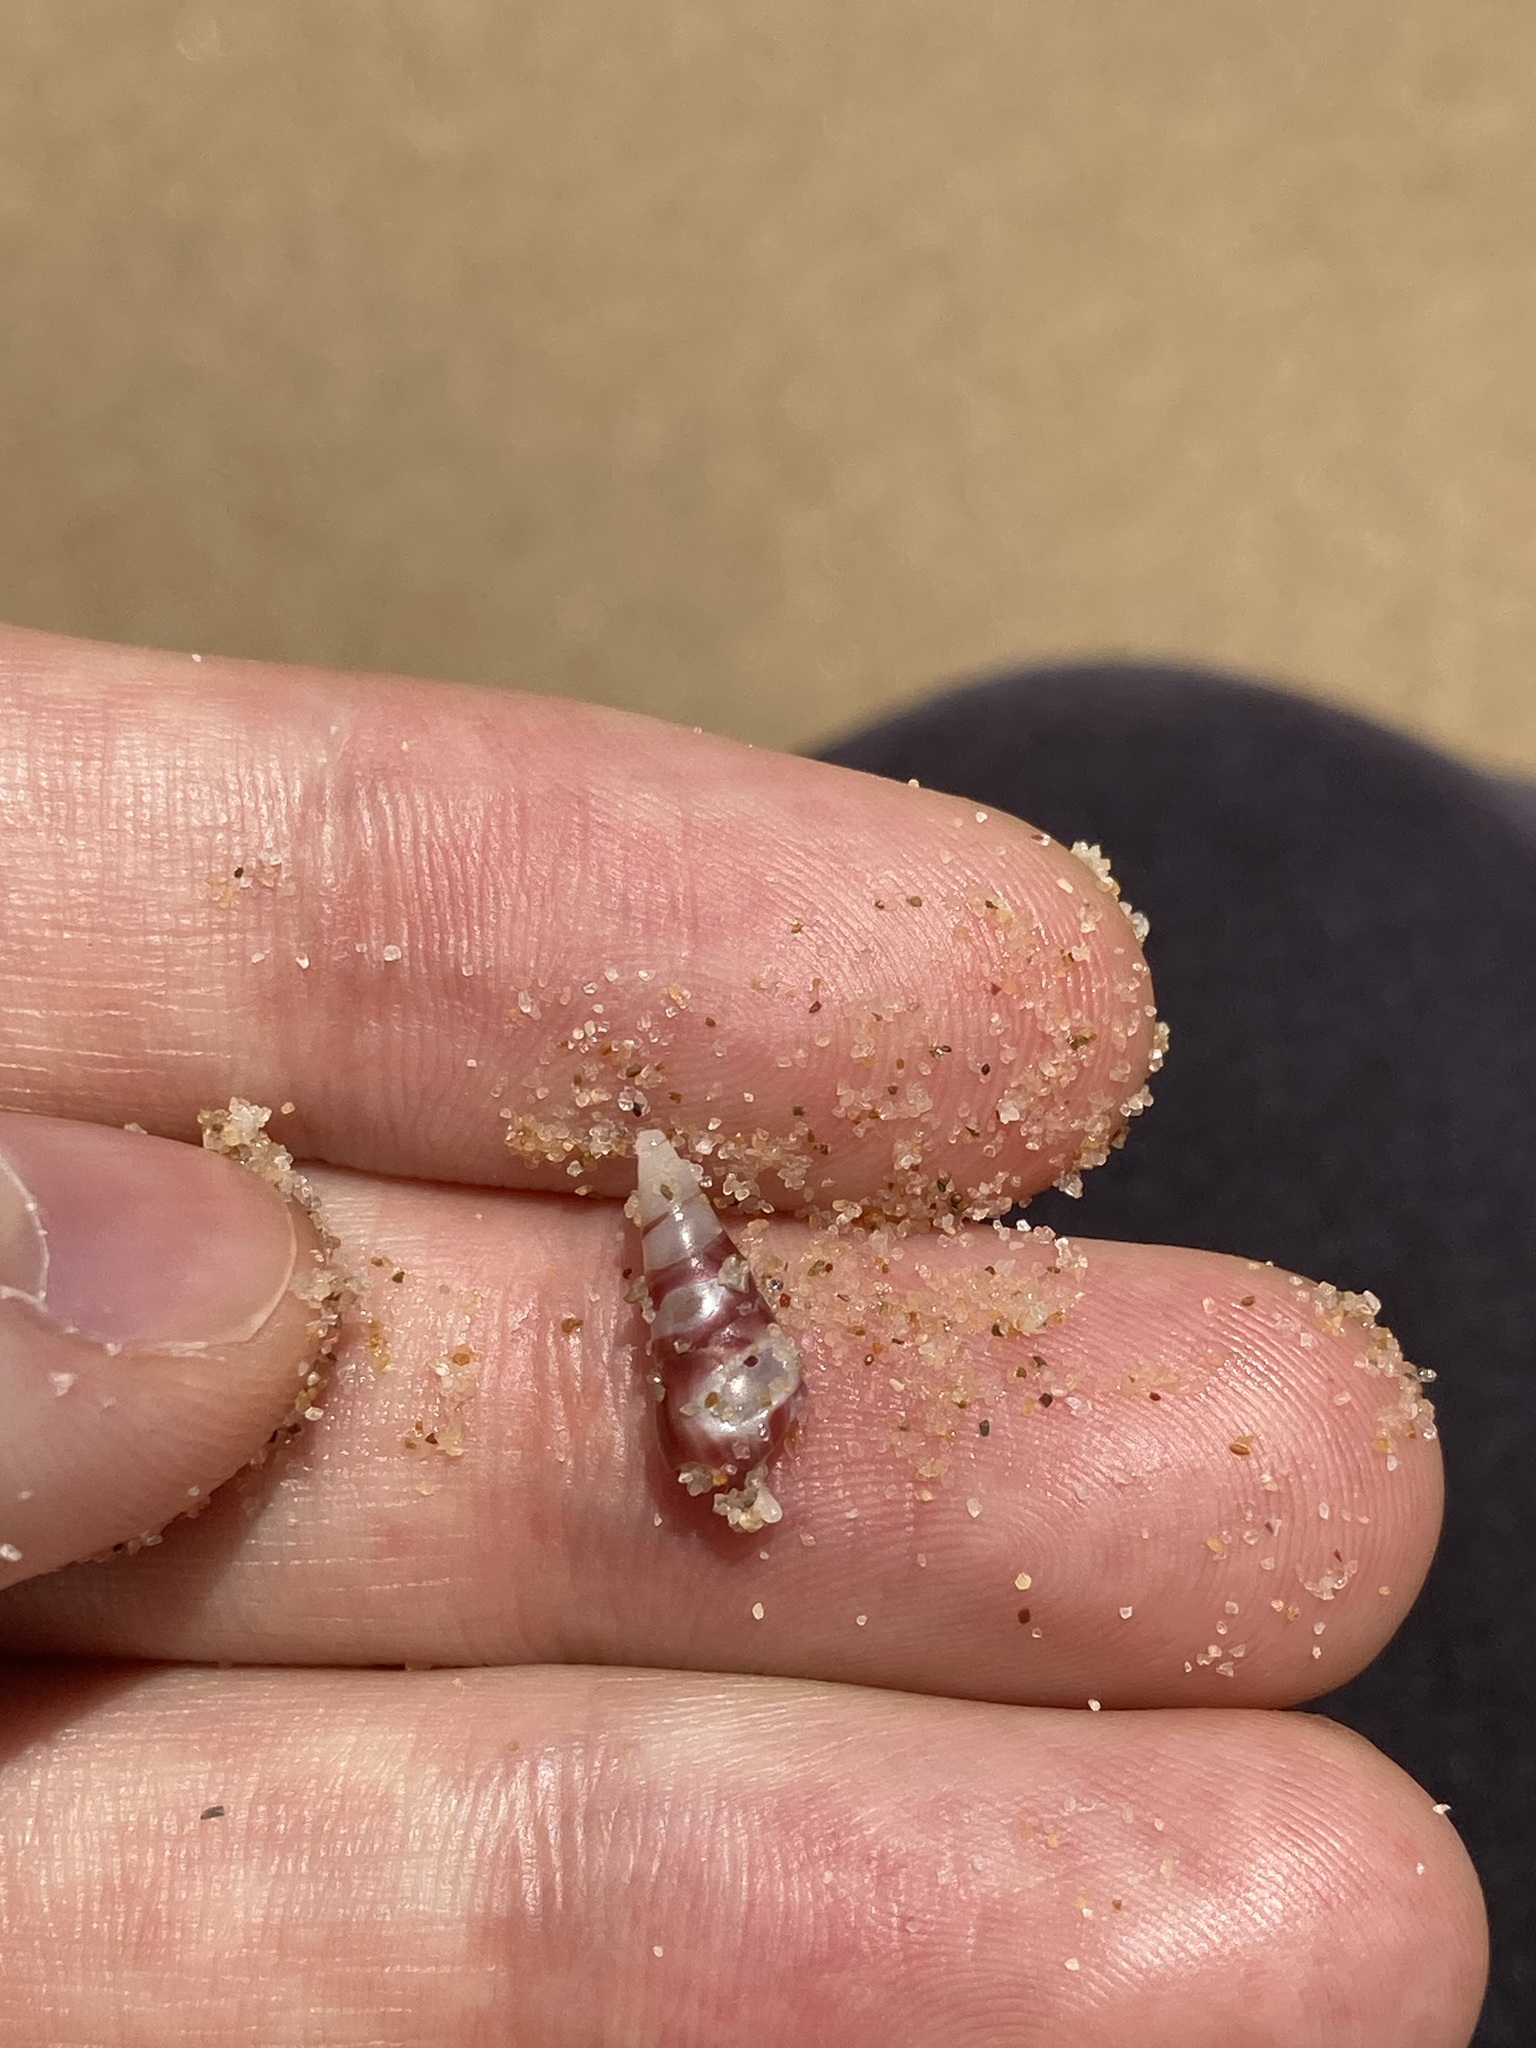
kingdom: Animalia
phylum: Mollusca
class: Gastropoda
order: Trochida
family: Trochidae
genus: Bankivia
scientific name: Bankivia fasciata
